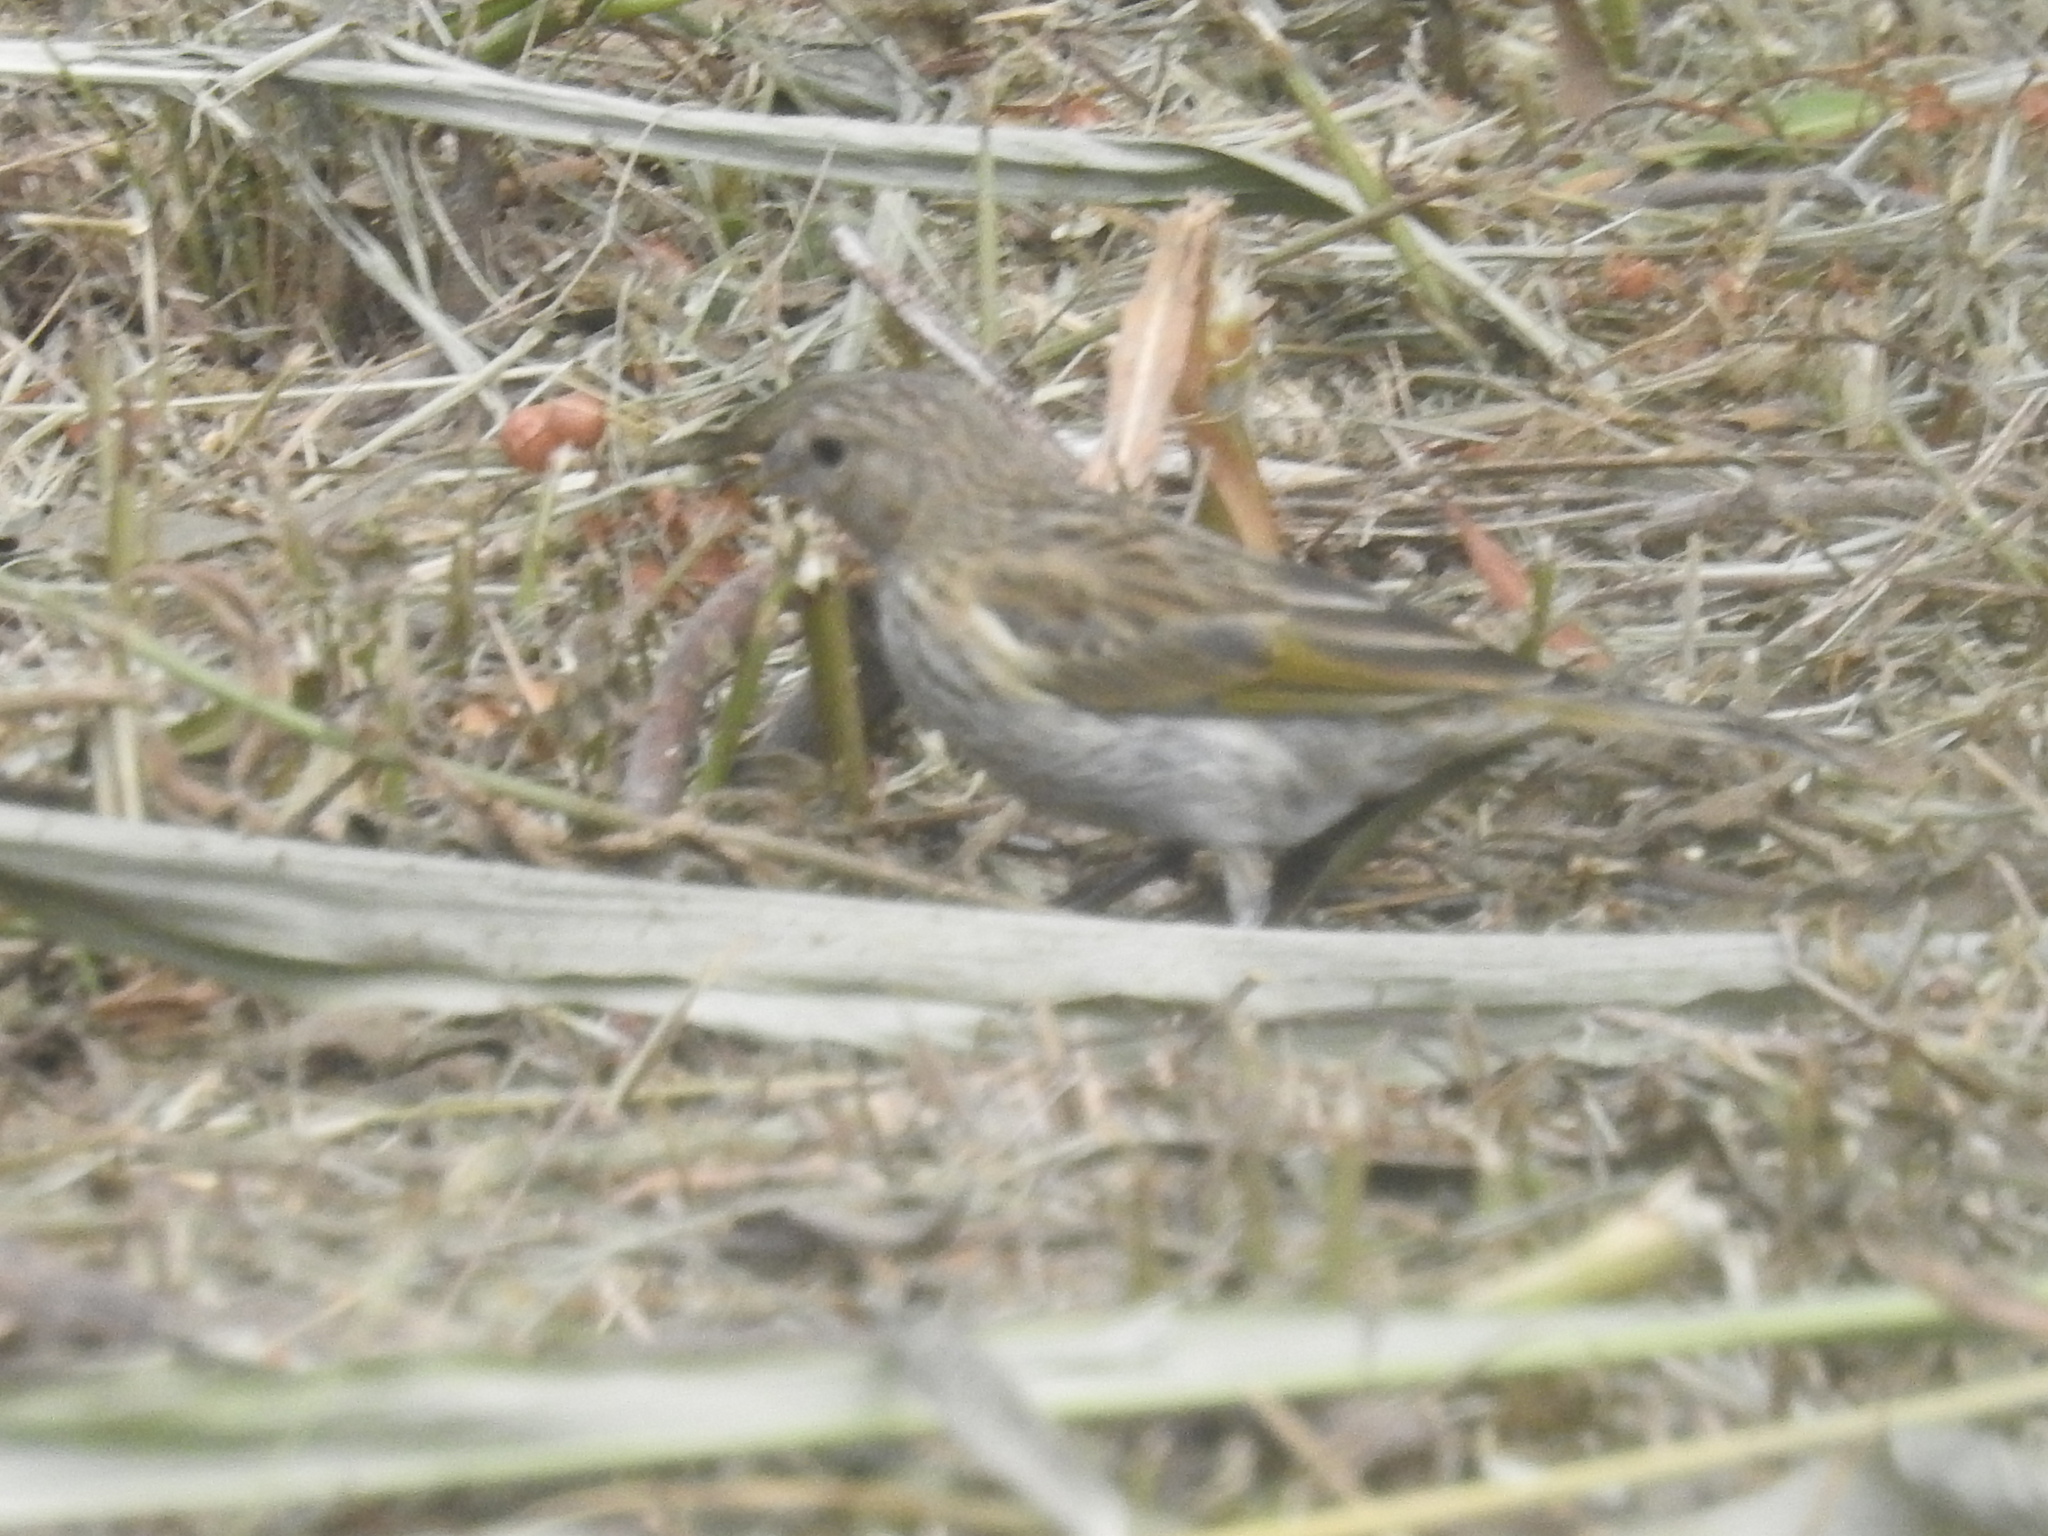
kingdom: Animalia
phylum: Chordata
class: Aves
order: Passeriformes
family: Thraupidae
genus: Sicalis
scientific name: Sicalis flaveola
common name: Saffron finch
